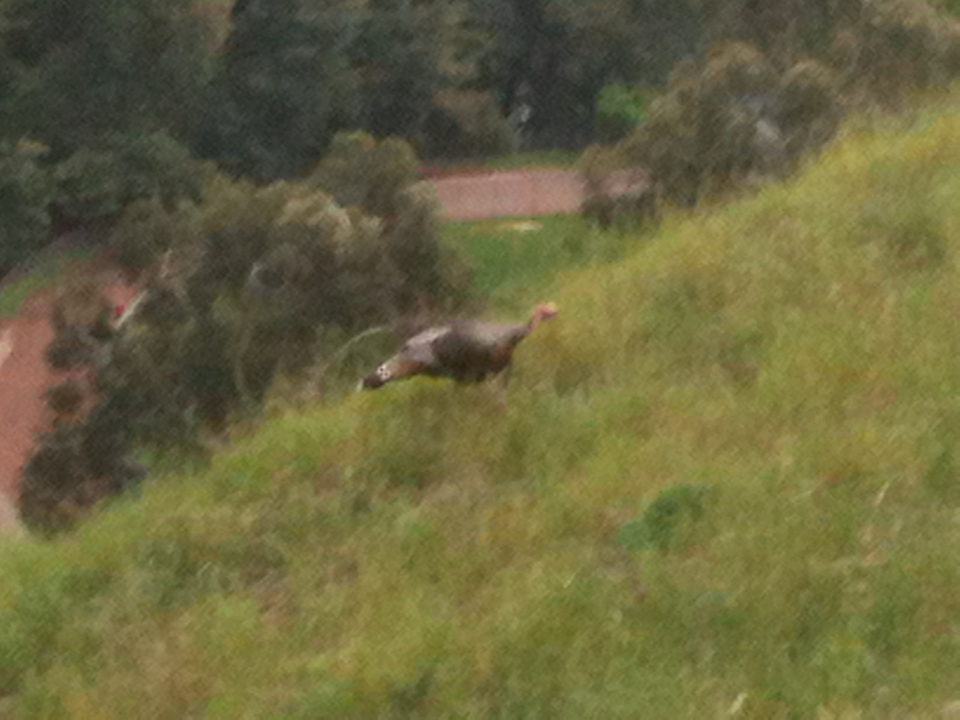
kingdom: Animalia
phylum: Chordata
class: Aves
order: Galliformes
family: Phasianidae
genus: Meleagris
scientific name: Meleagris gallopavo
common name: Wild turkey
